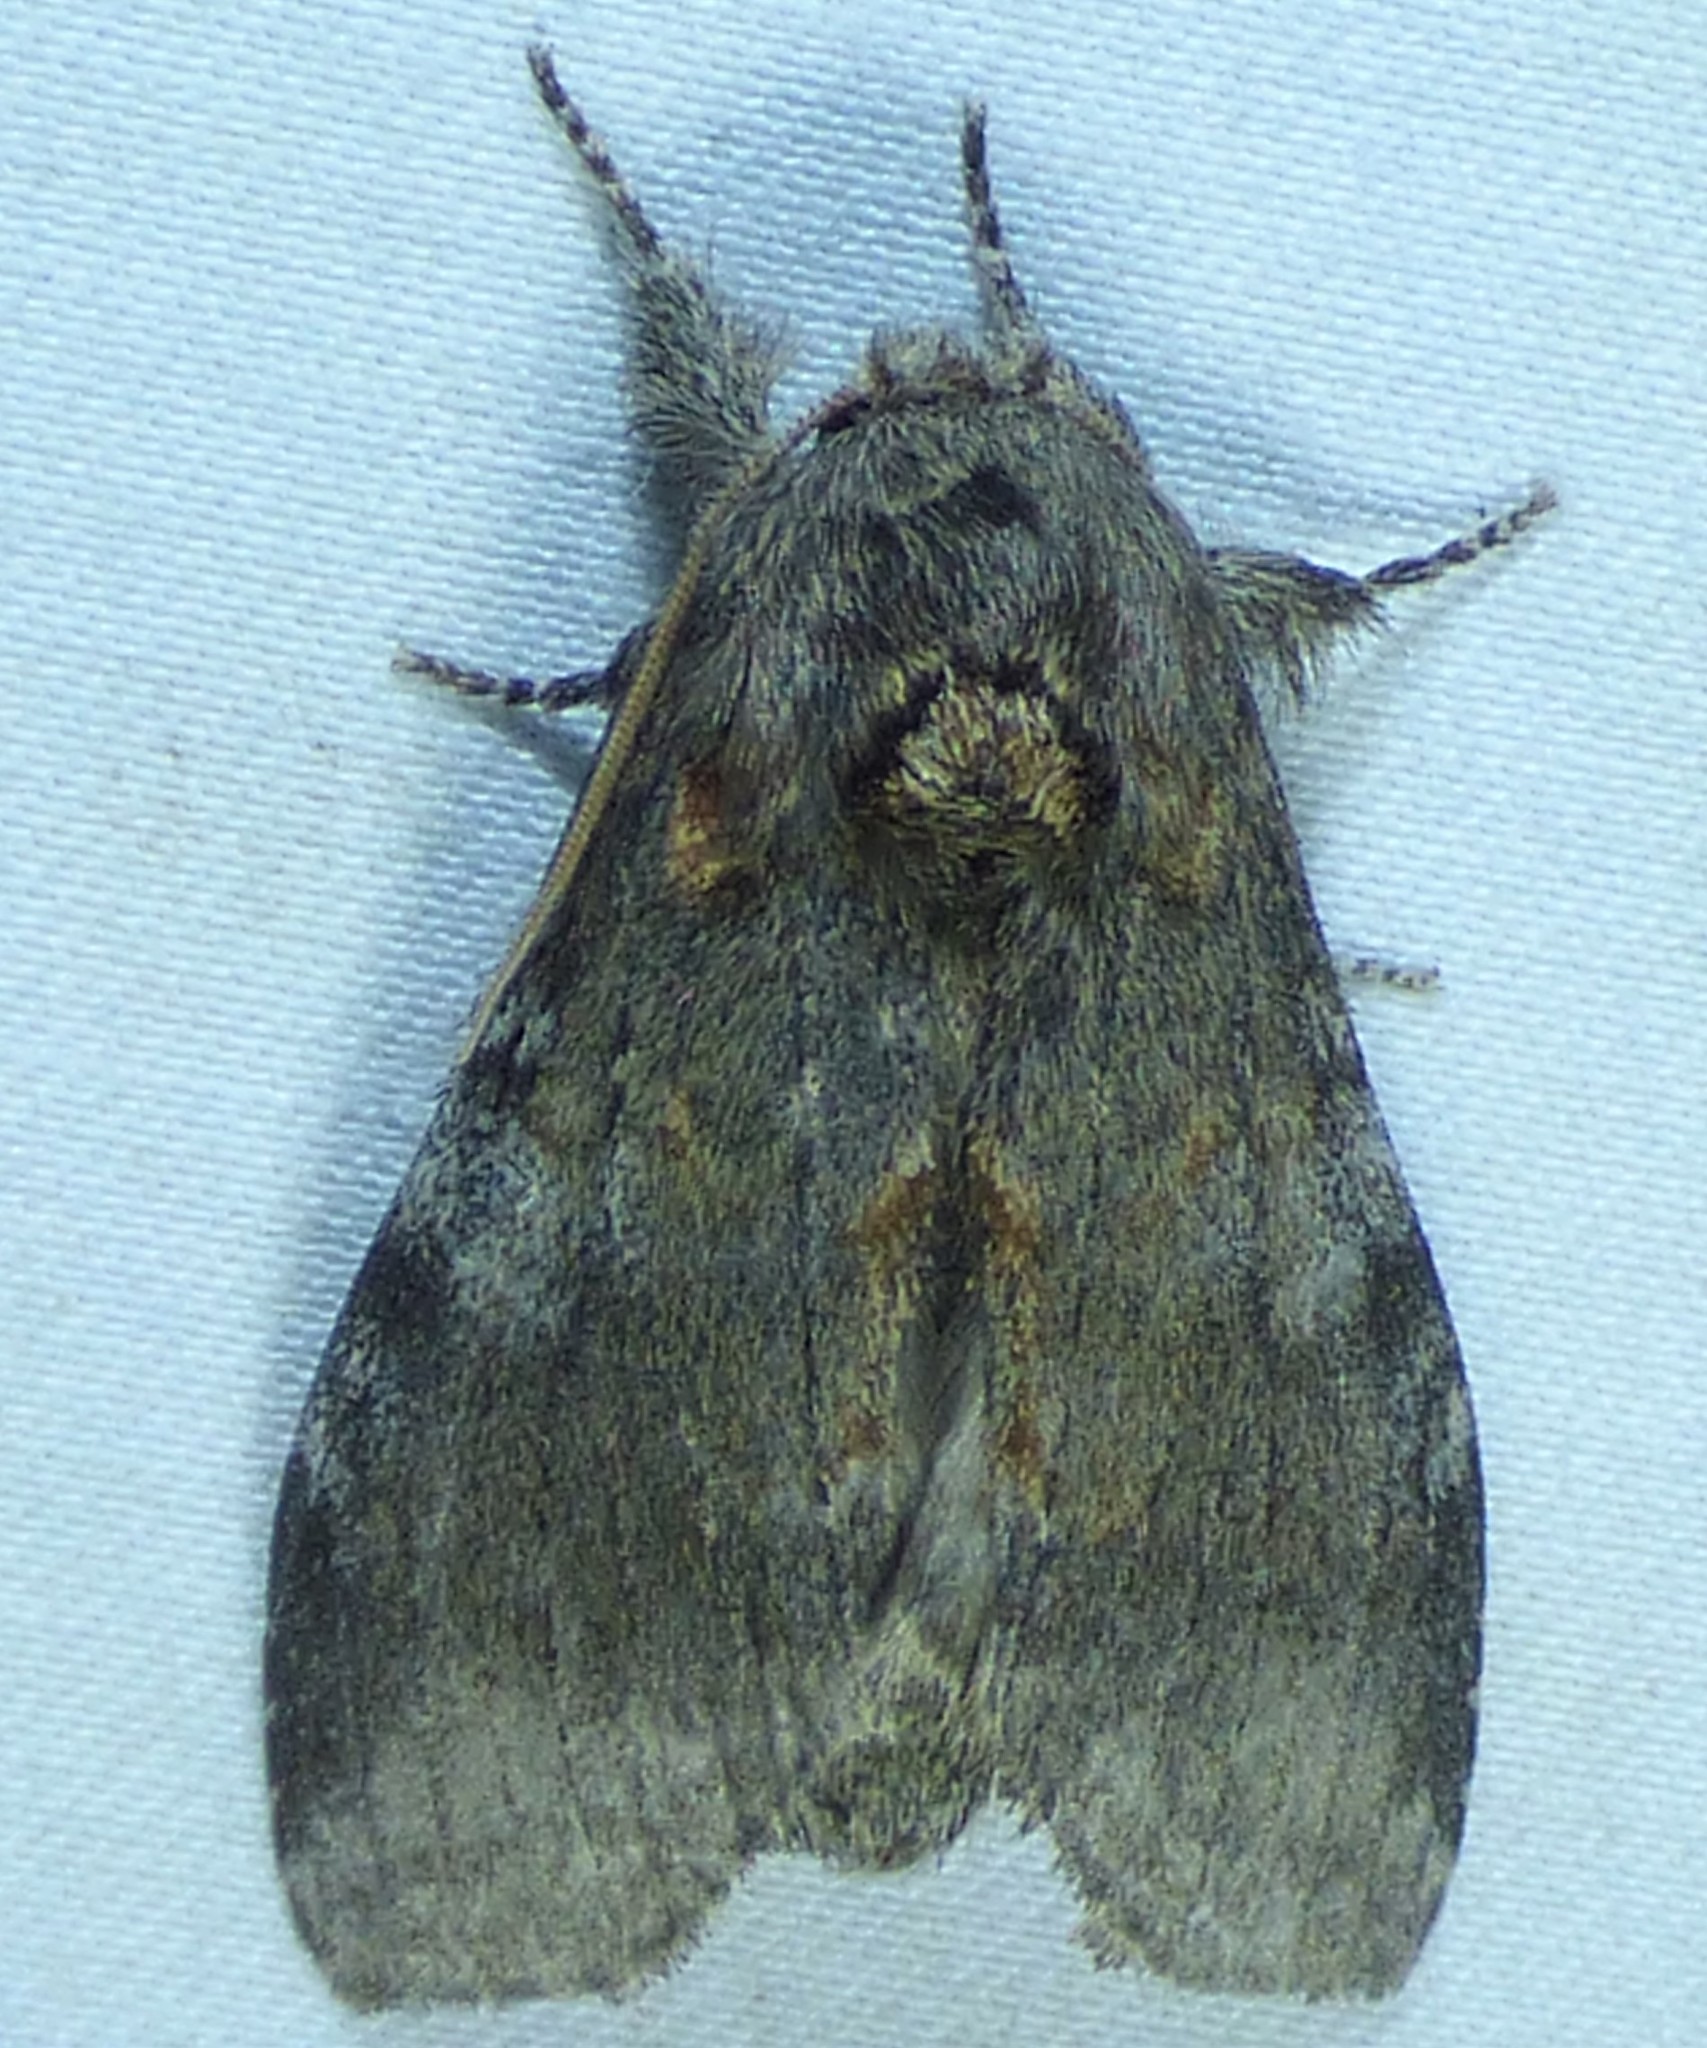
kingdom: Animalia
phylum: Arthropoda
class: Insecta
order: Lepidoptera
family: Notodontidae
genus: Peridea
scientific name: Peridea angulosa
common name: Angulose prominent
